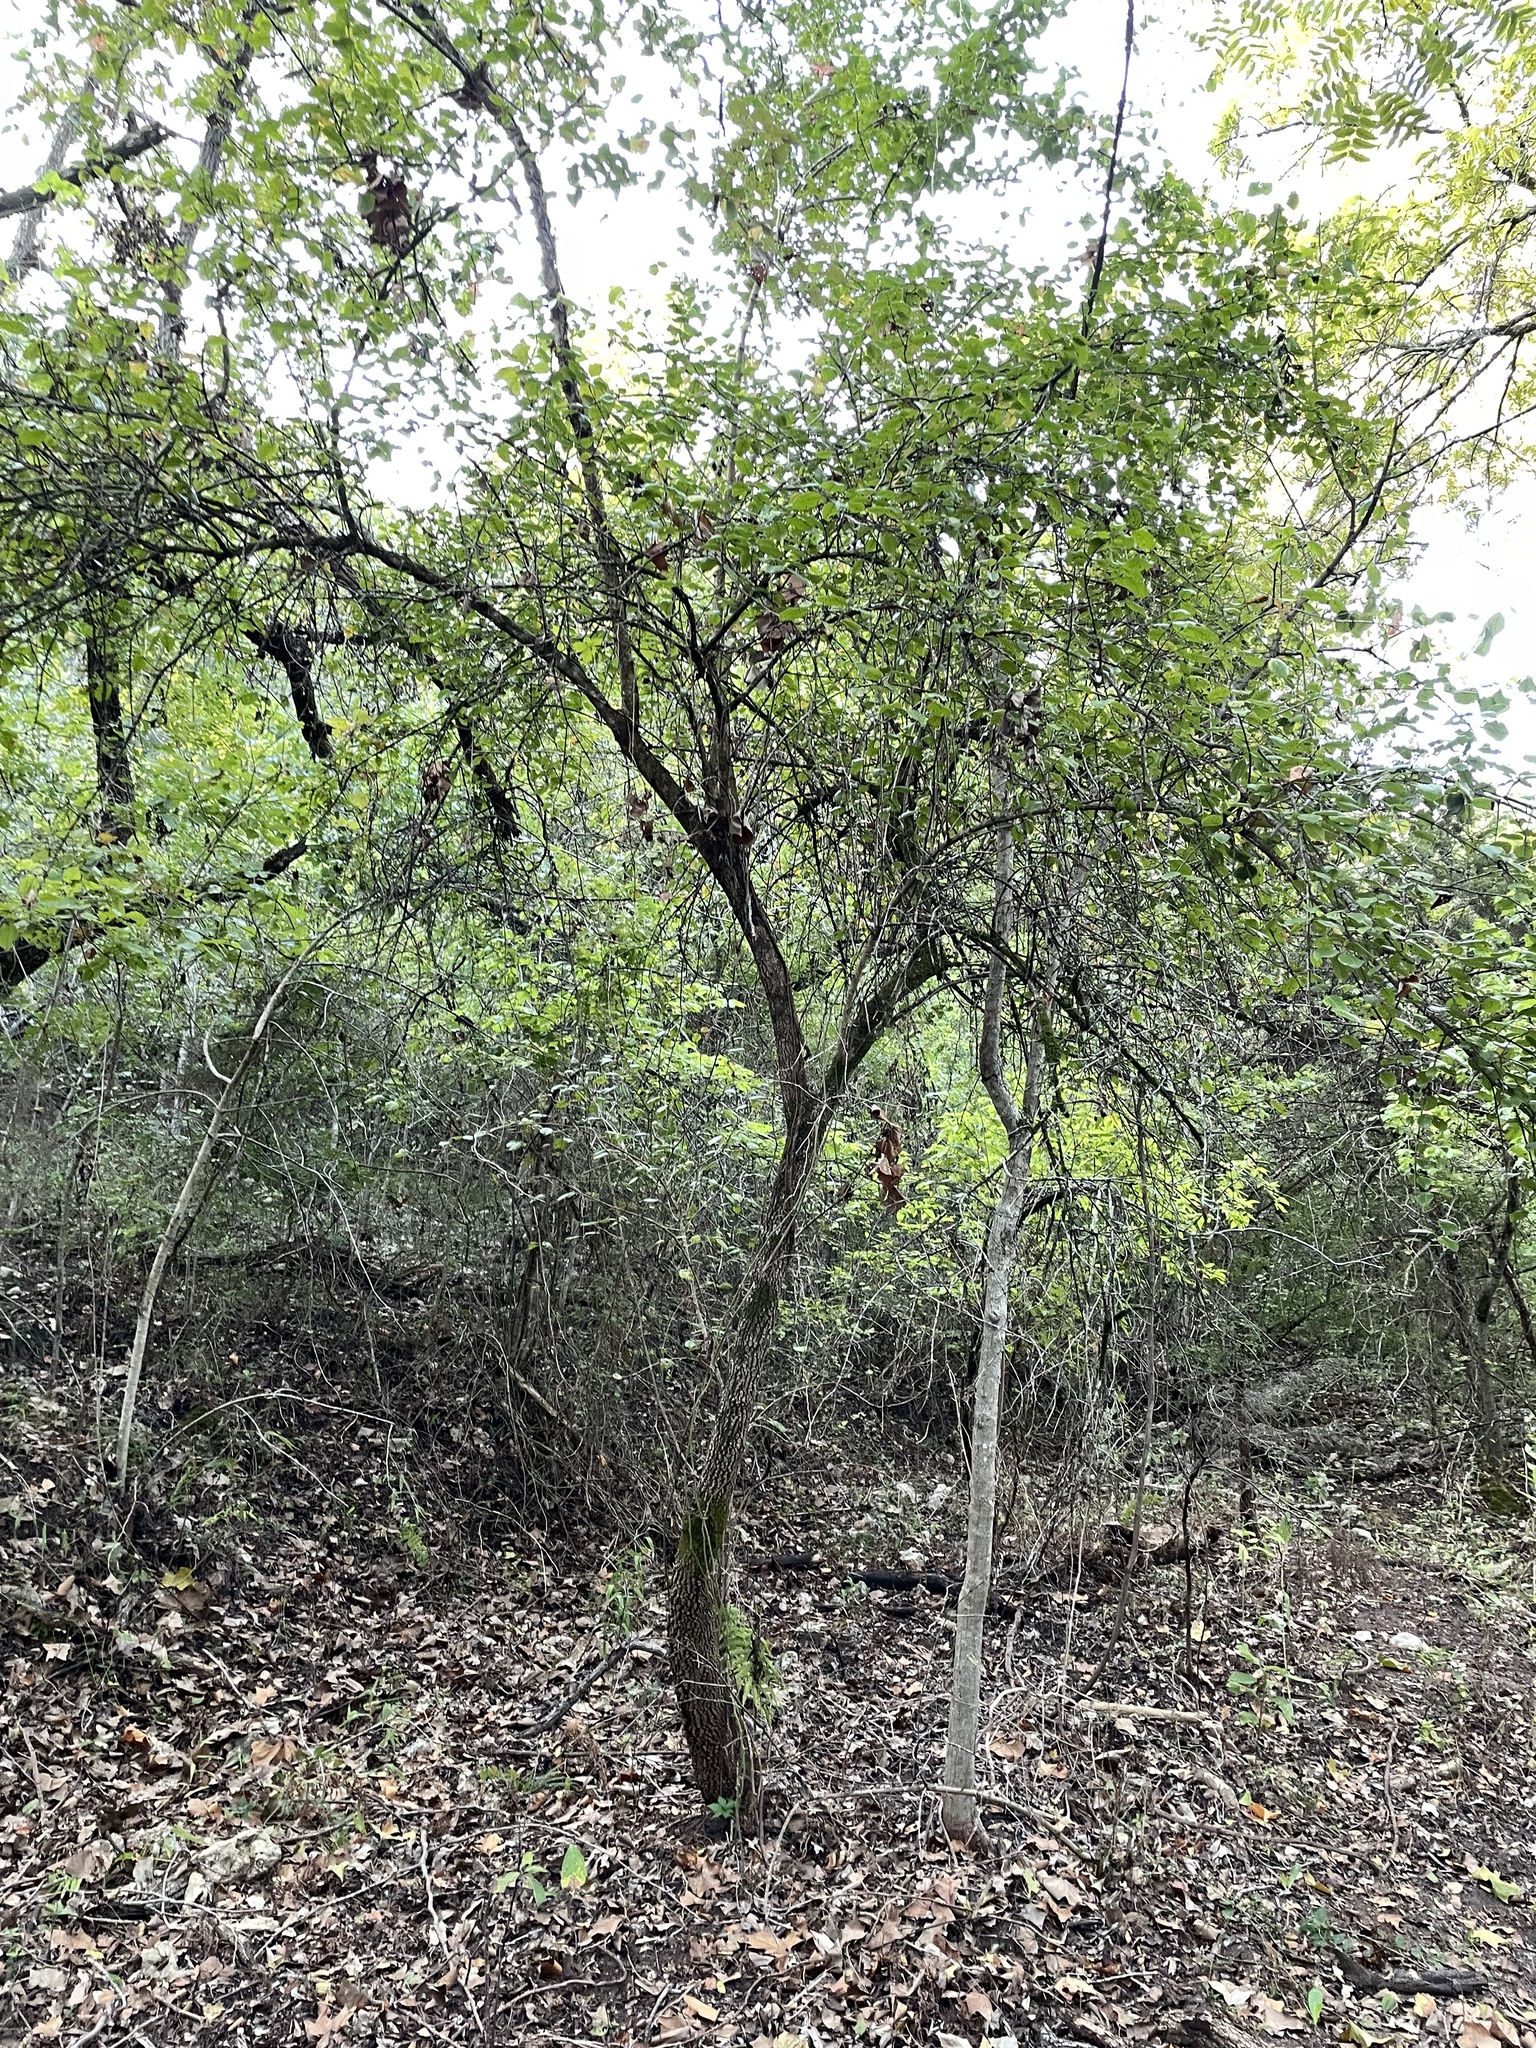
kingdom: Plantae
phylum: Tracheophyta
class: Magnoliopsida
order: Dipsacales
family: Viburnaceae
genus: Viburnum
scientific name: Viburnum rufidulum
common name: Blue haw
